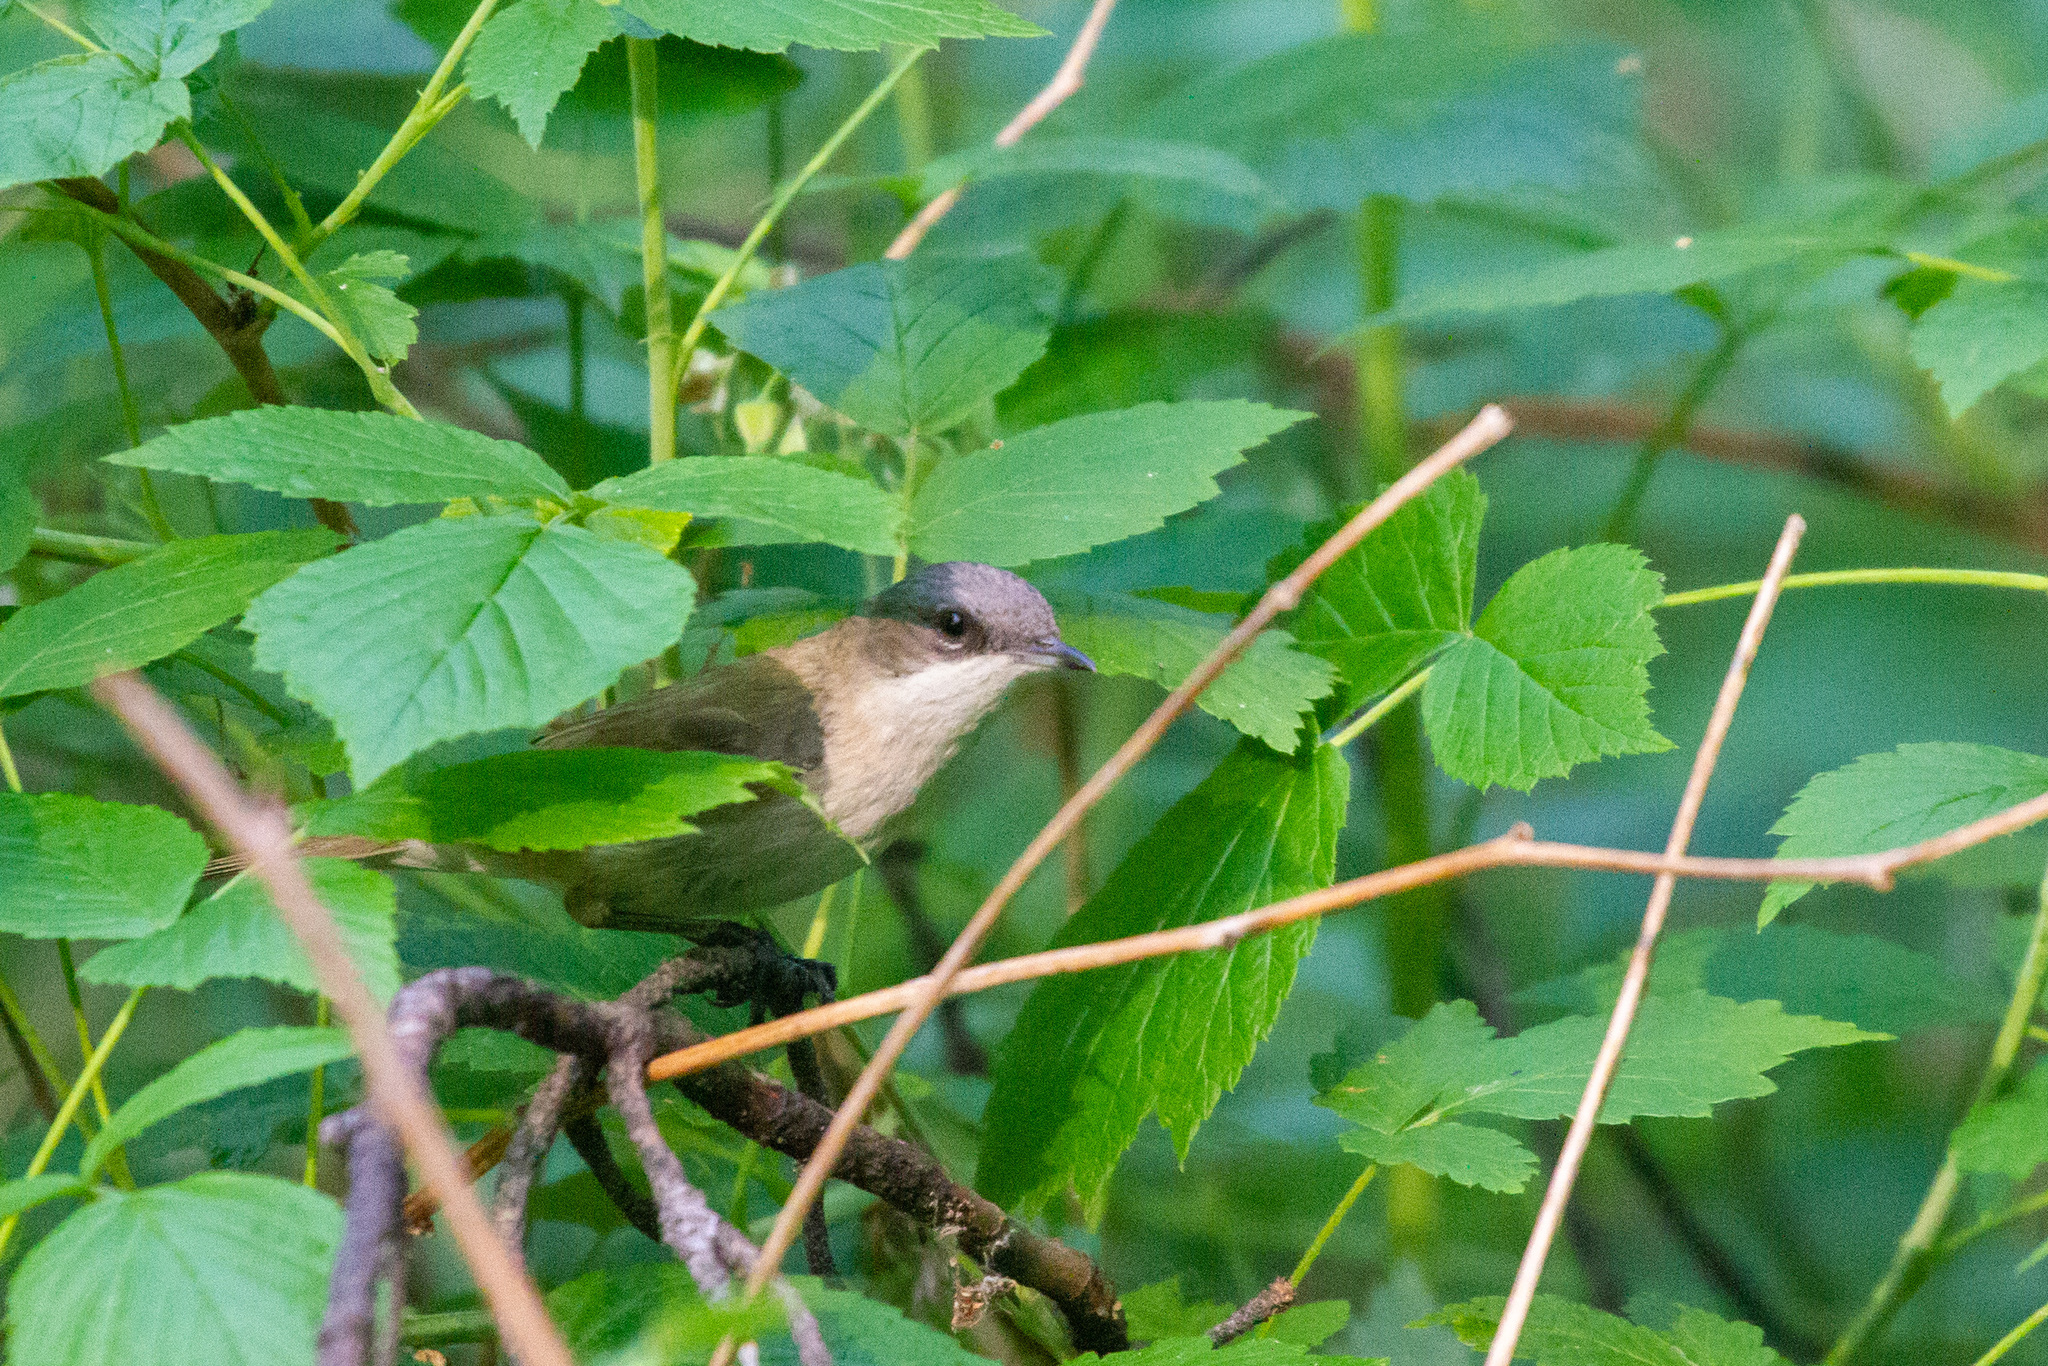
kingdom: Animalia
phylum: Chordata
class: Aves
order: Passeriformes
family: Sylviidae
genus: Sylvia
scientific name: Sylvia curruca
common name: Lesser whitethroat
